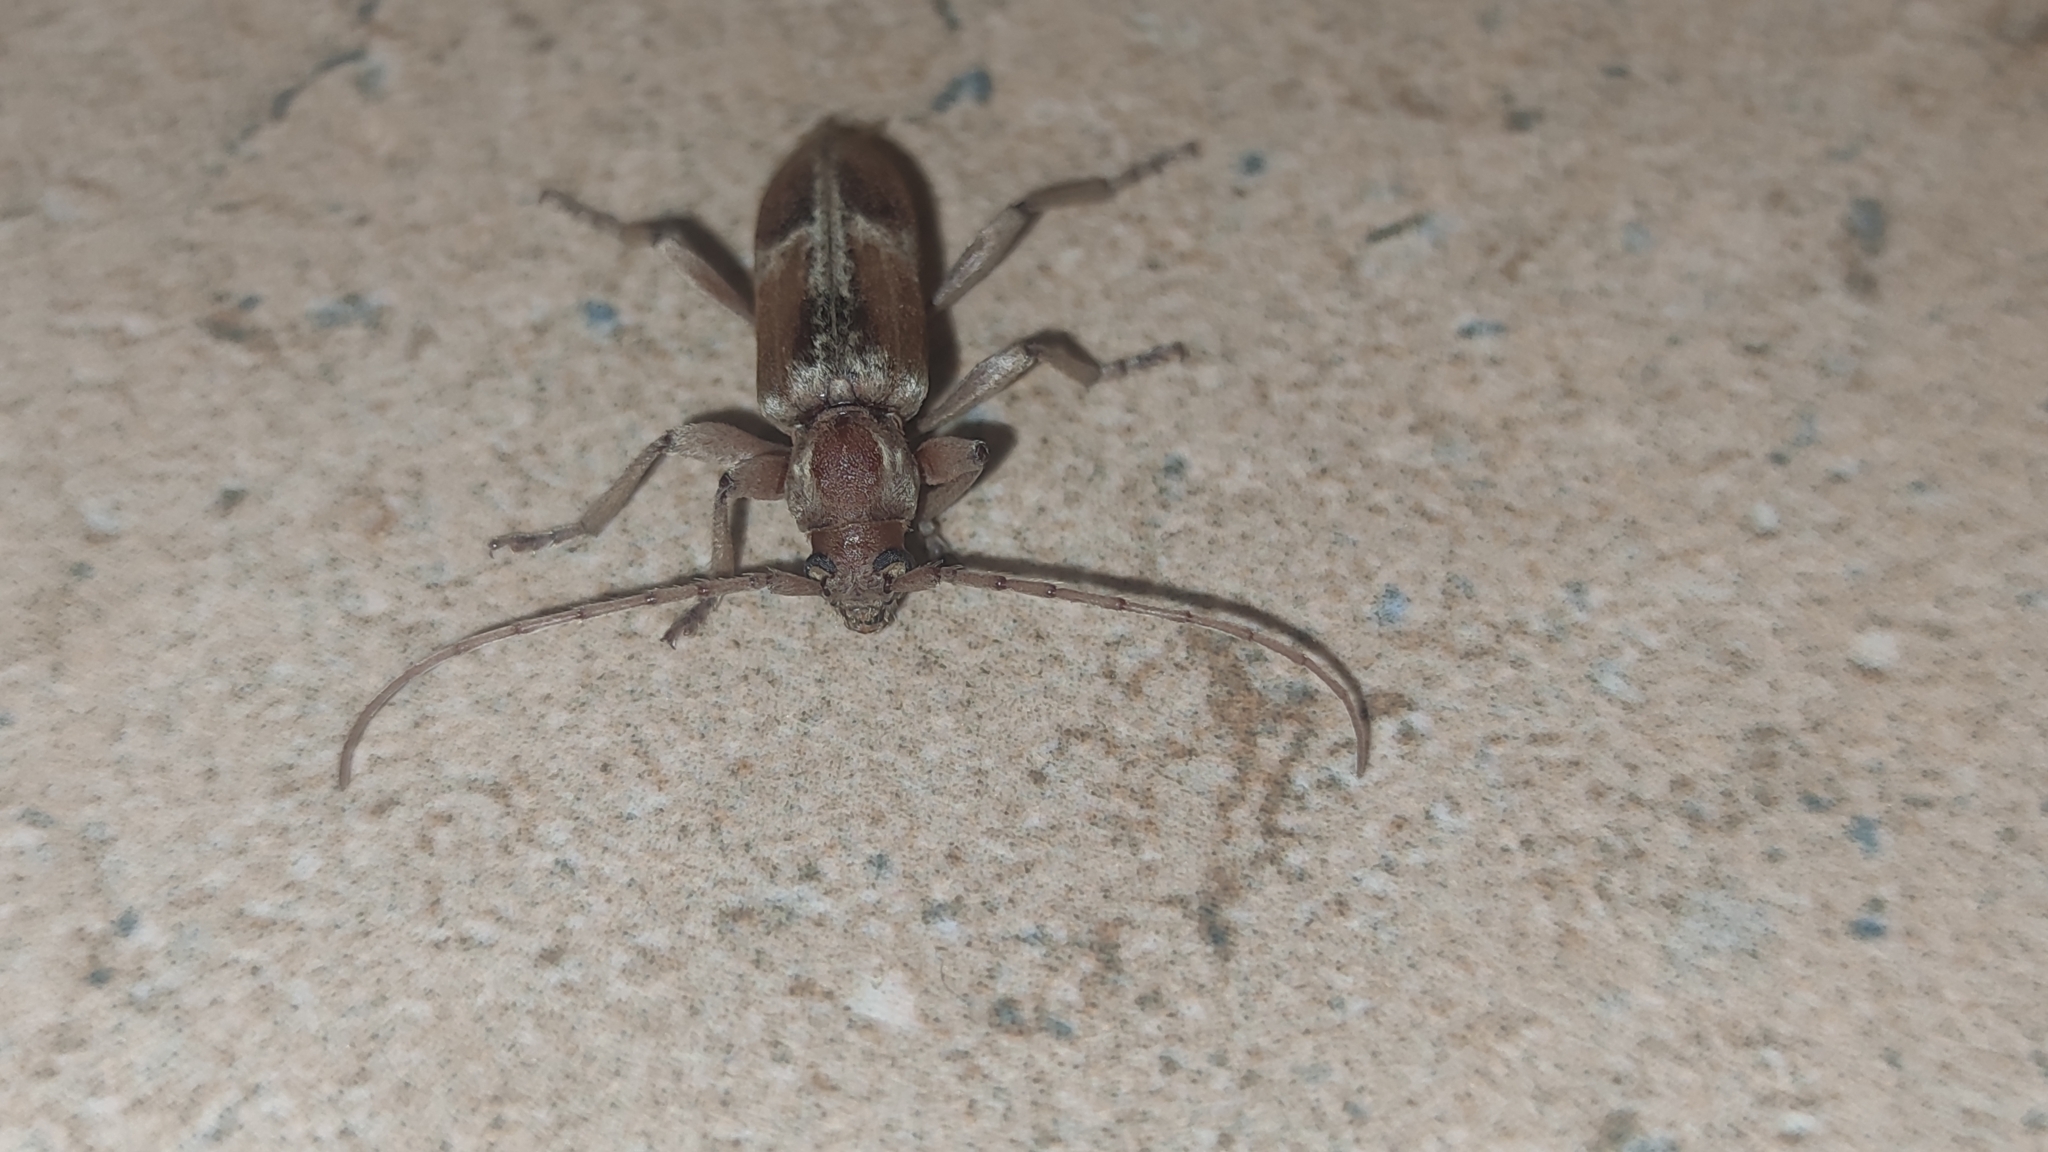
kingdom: Animalia
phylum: Arthropoda
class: Insecta
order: Coleoptera
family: Cerambycidae
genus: Trichoferus
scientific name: Trichoferus pallidus
